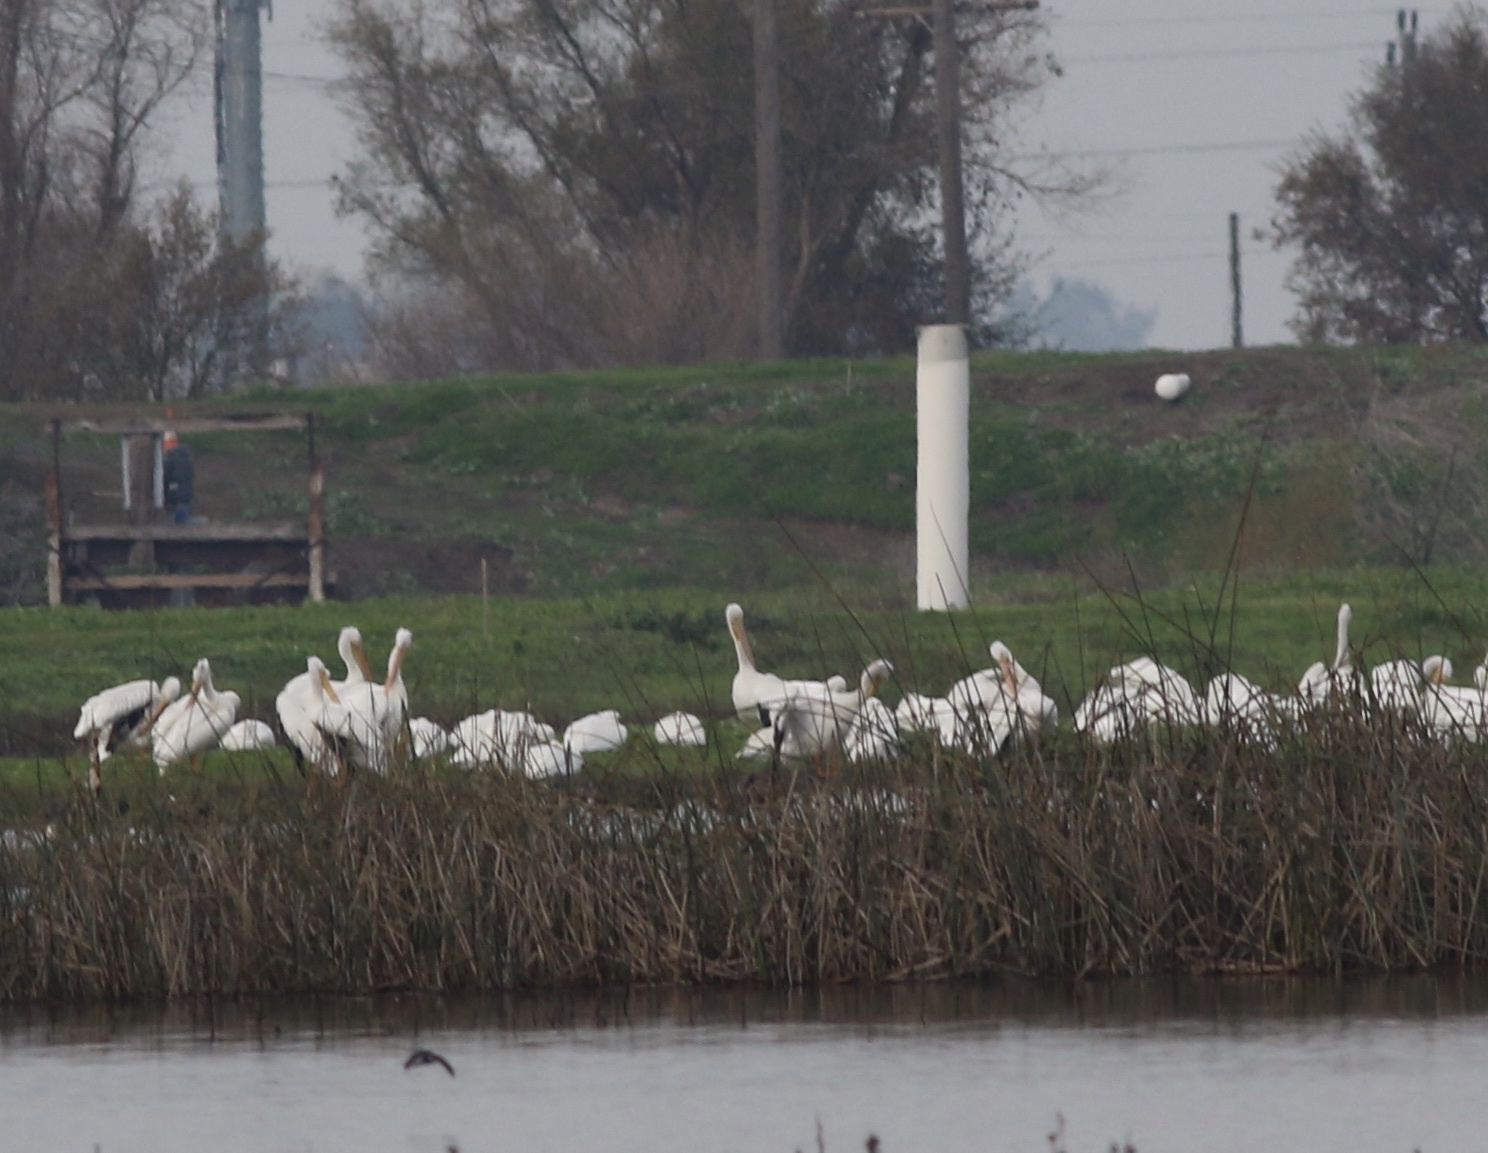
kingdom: Animalia
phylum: Chordata
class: Aves
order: Pelecaniformes
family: Pelecanidae
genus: Pelecanus
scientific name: Pelecanus erythrorhynchos
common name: American white pelican
